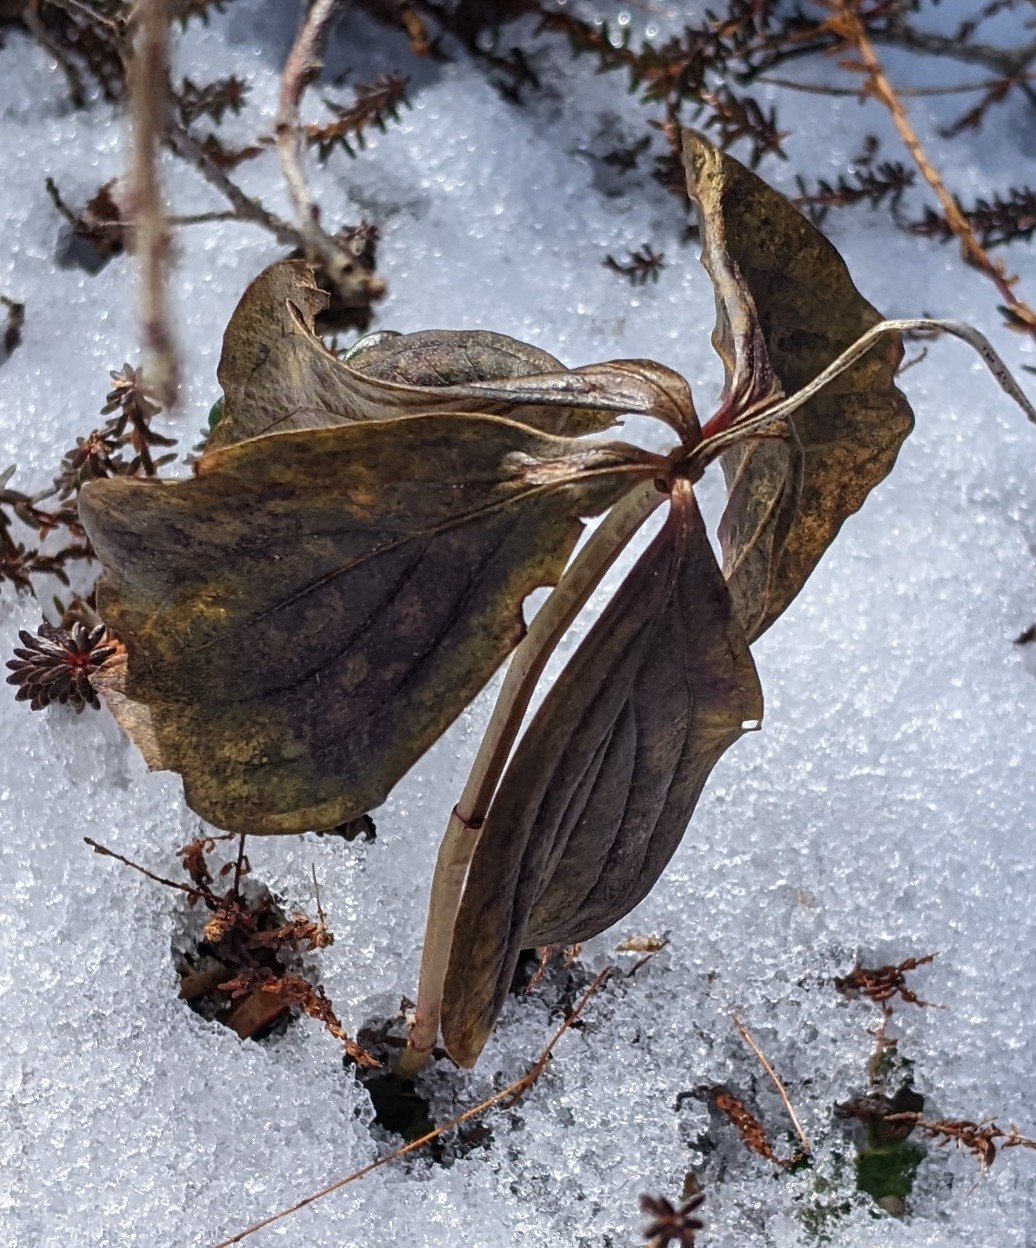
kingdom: Plantae
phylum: Tracheophyta
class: Magnoliopsida
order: Cornales
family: Cornaceae
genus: Cornus
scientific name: Cornus canadensis
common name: Creeping dogwood
